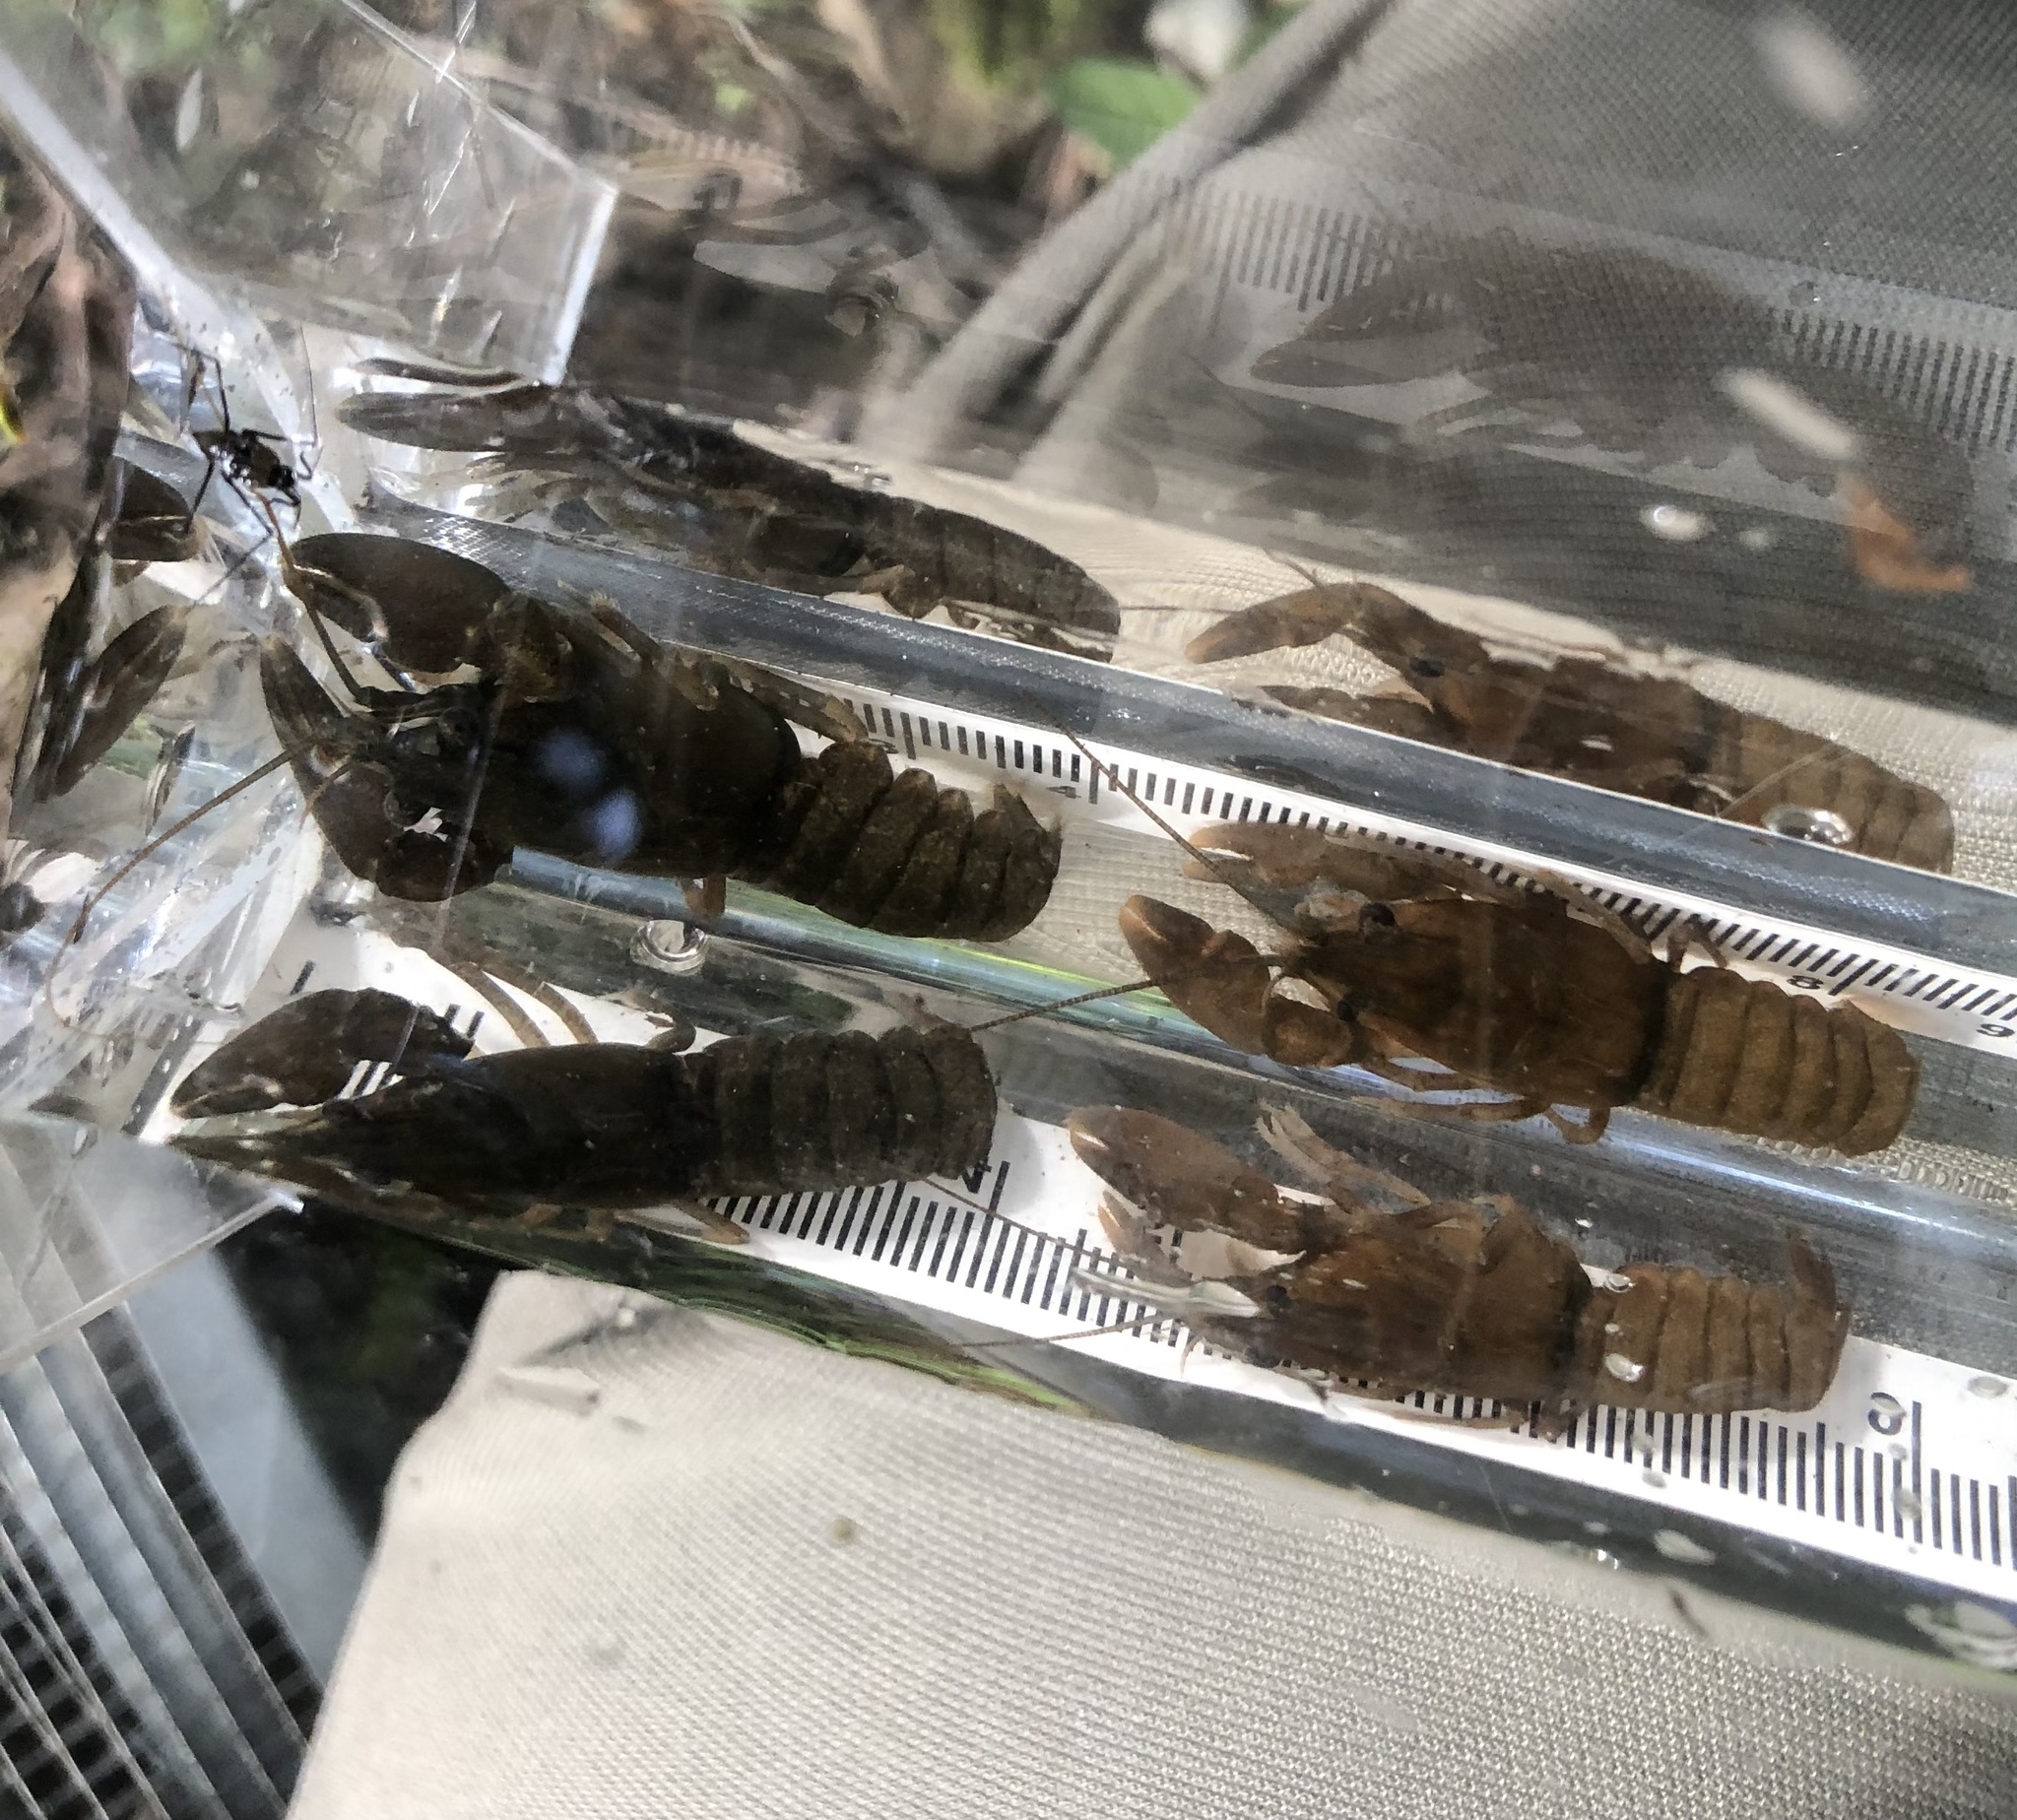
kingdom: Animalia
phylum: Arthropoda
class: Malacostraca
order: Decapoda
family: Astacidae
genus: Pacifastacus
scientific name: Pacifastacus leniusculus
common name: Signal crayfish
